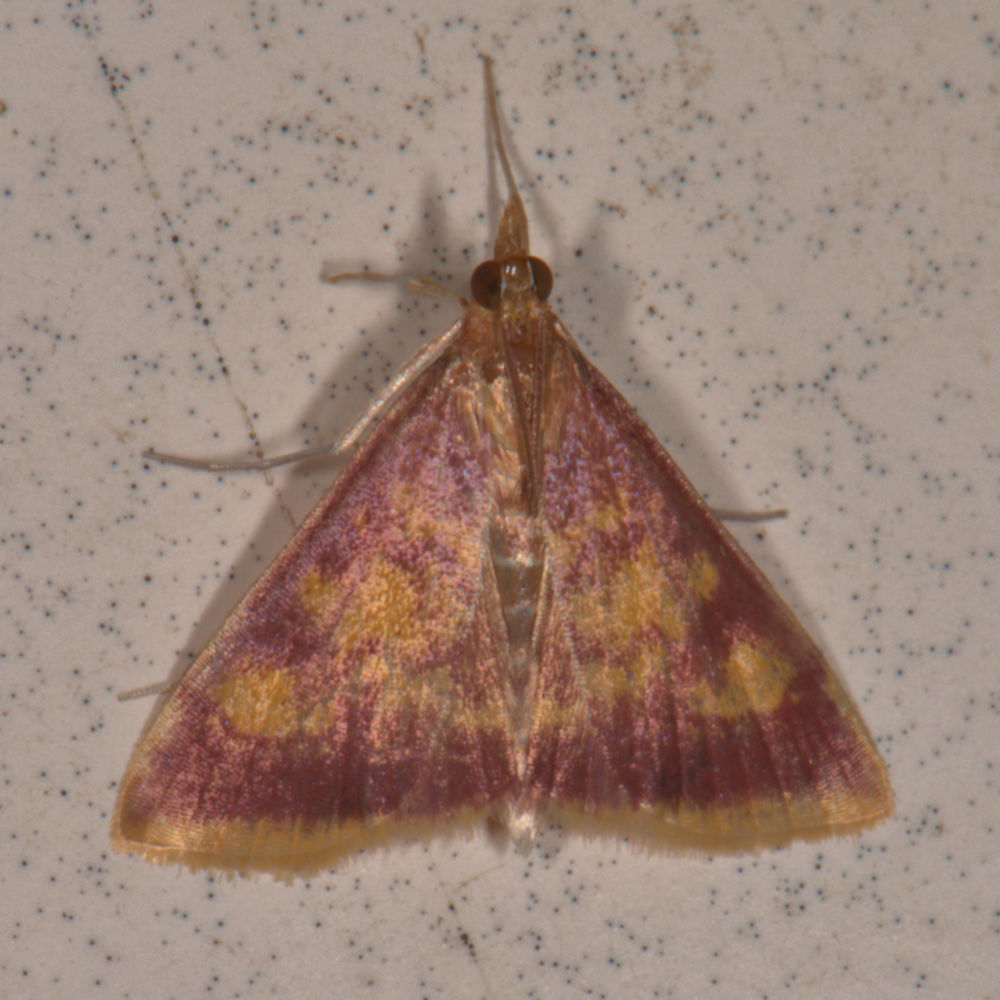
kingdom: Animalia
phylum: Arthropoda
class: Insecta
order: Lepidoptera
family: Crambidae
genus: Pyrausta
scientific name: Pyrausta acrionalis
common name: Mint-loving pyrausta moth
